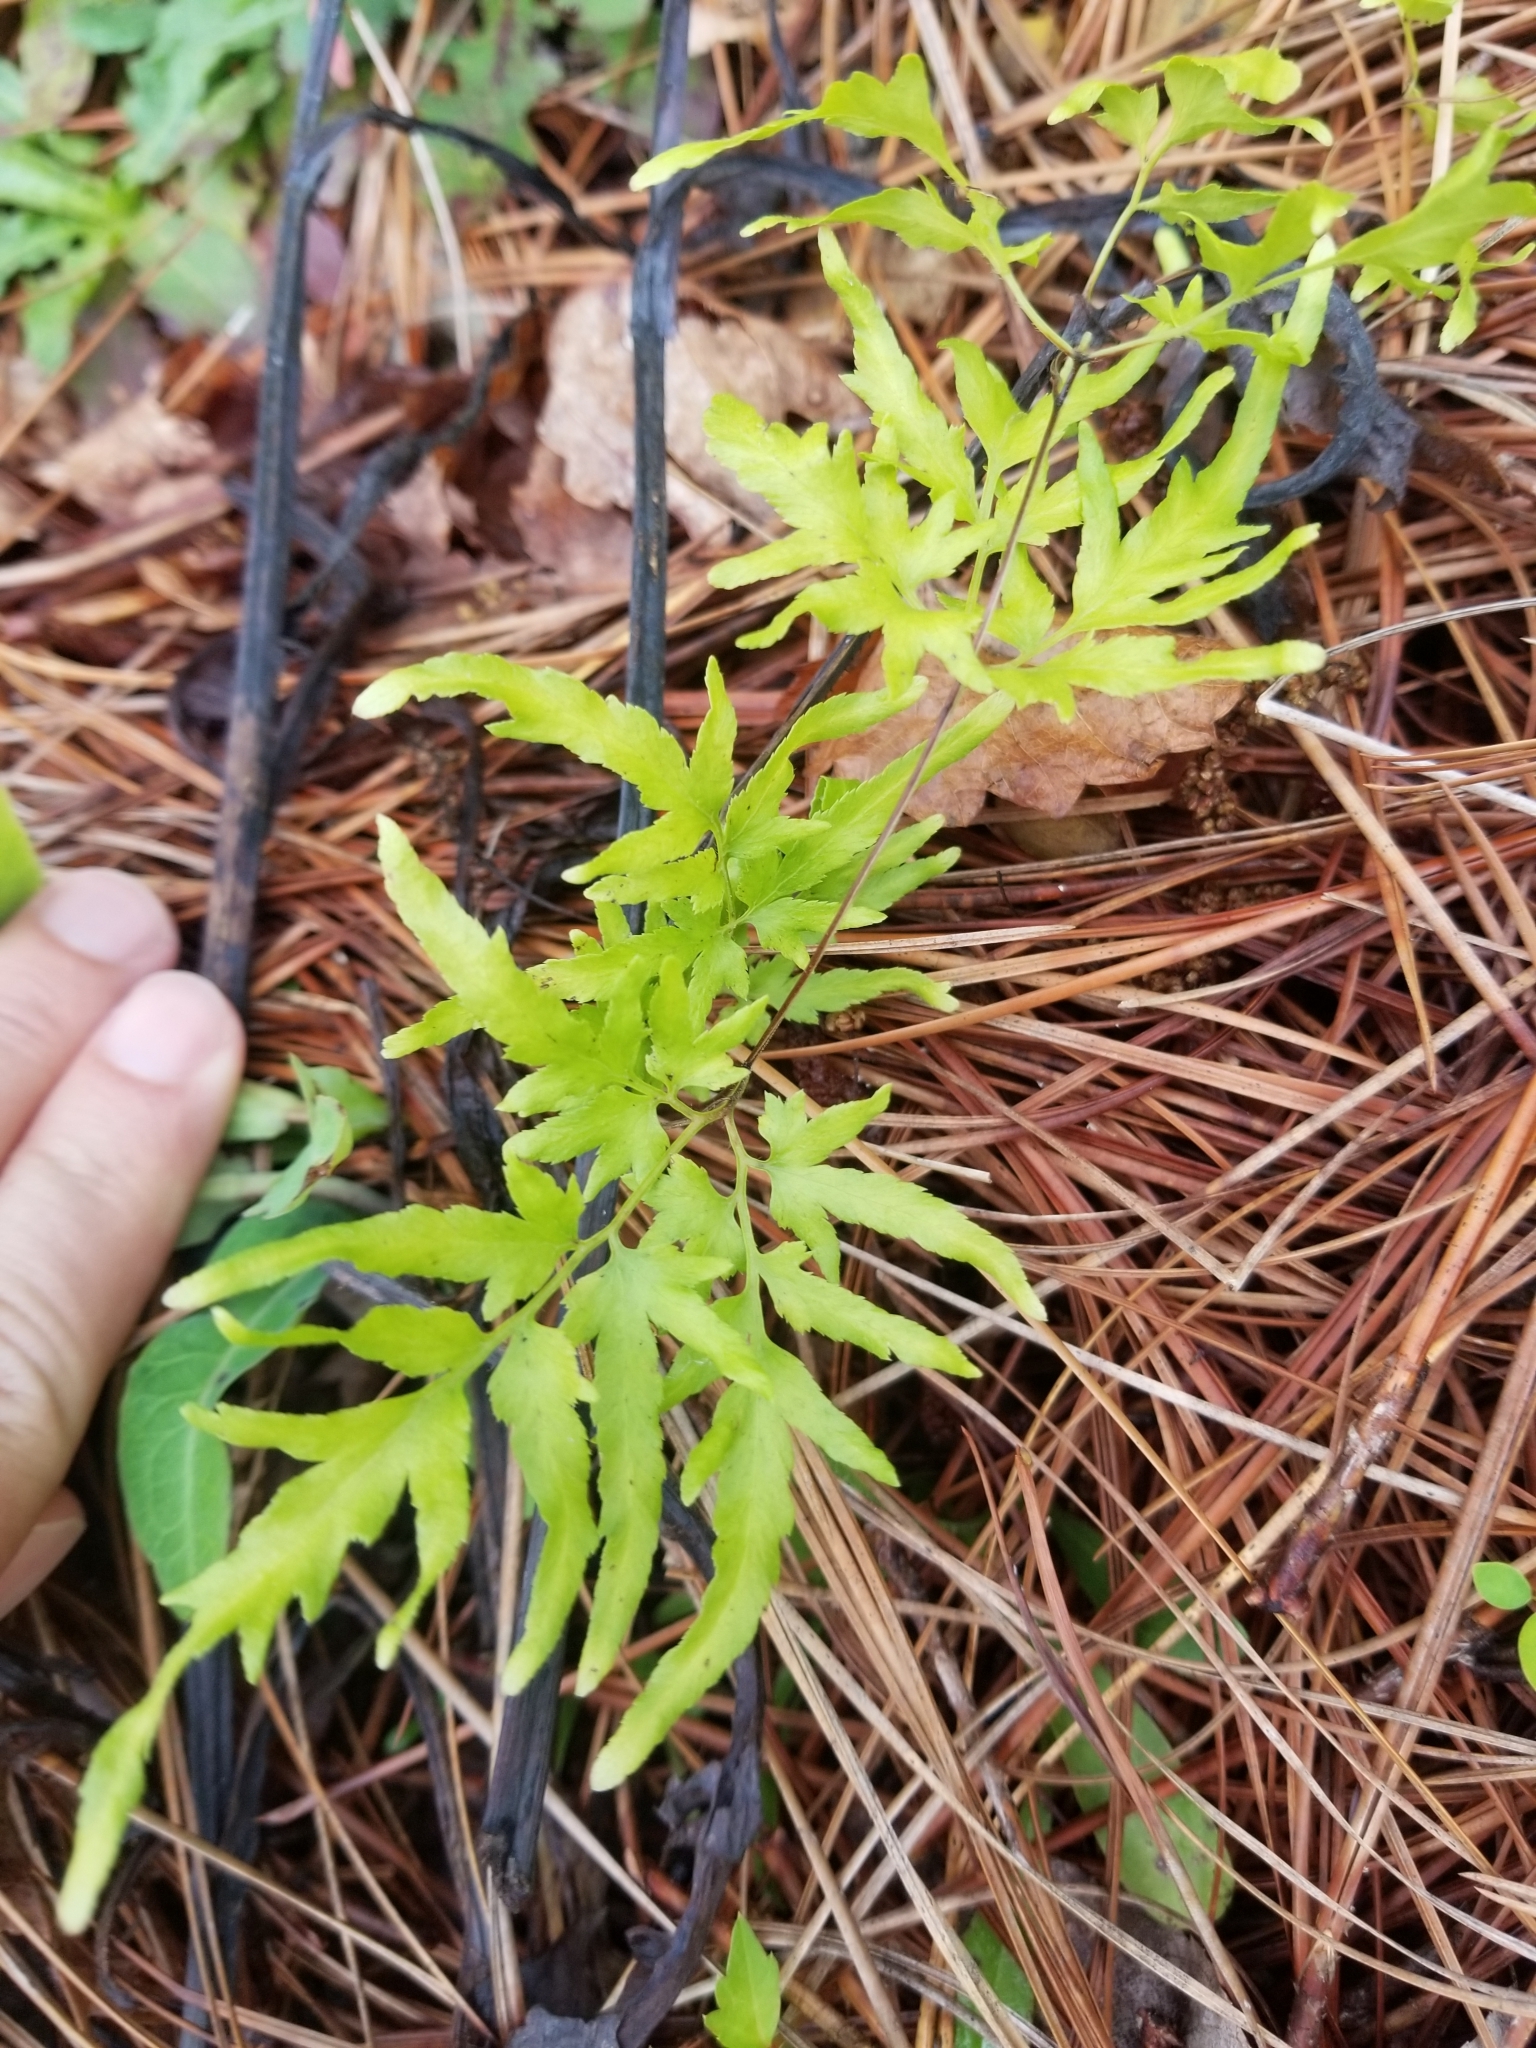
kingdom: Plantae
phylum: Tracheophyta
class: Polypodiopsida
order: Schizaeales
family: Lygodiaceae
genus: Lygodium
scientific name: Lygodium japonicum
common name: Japanese climbing fern
